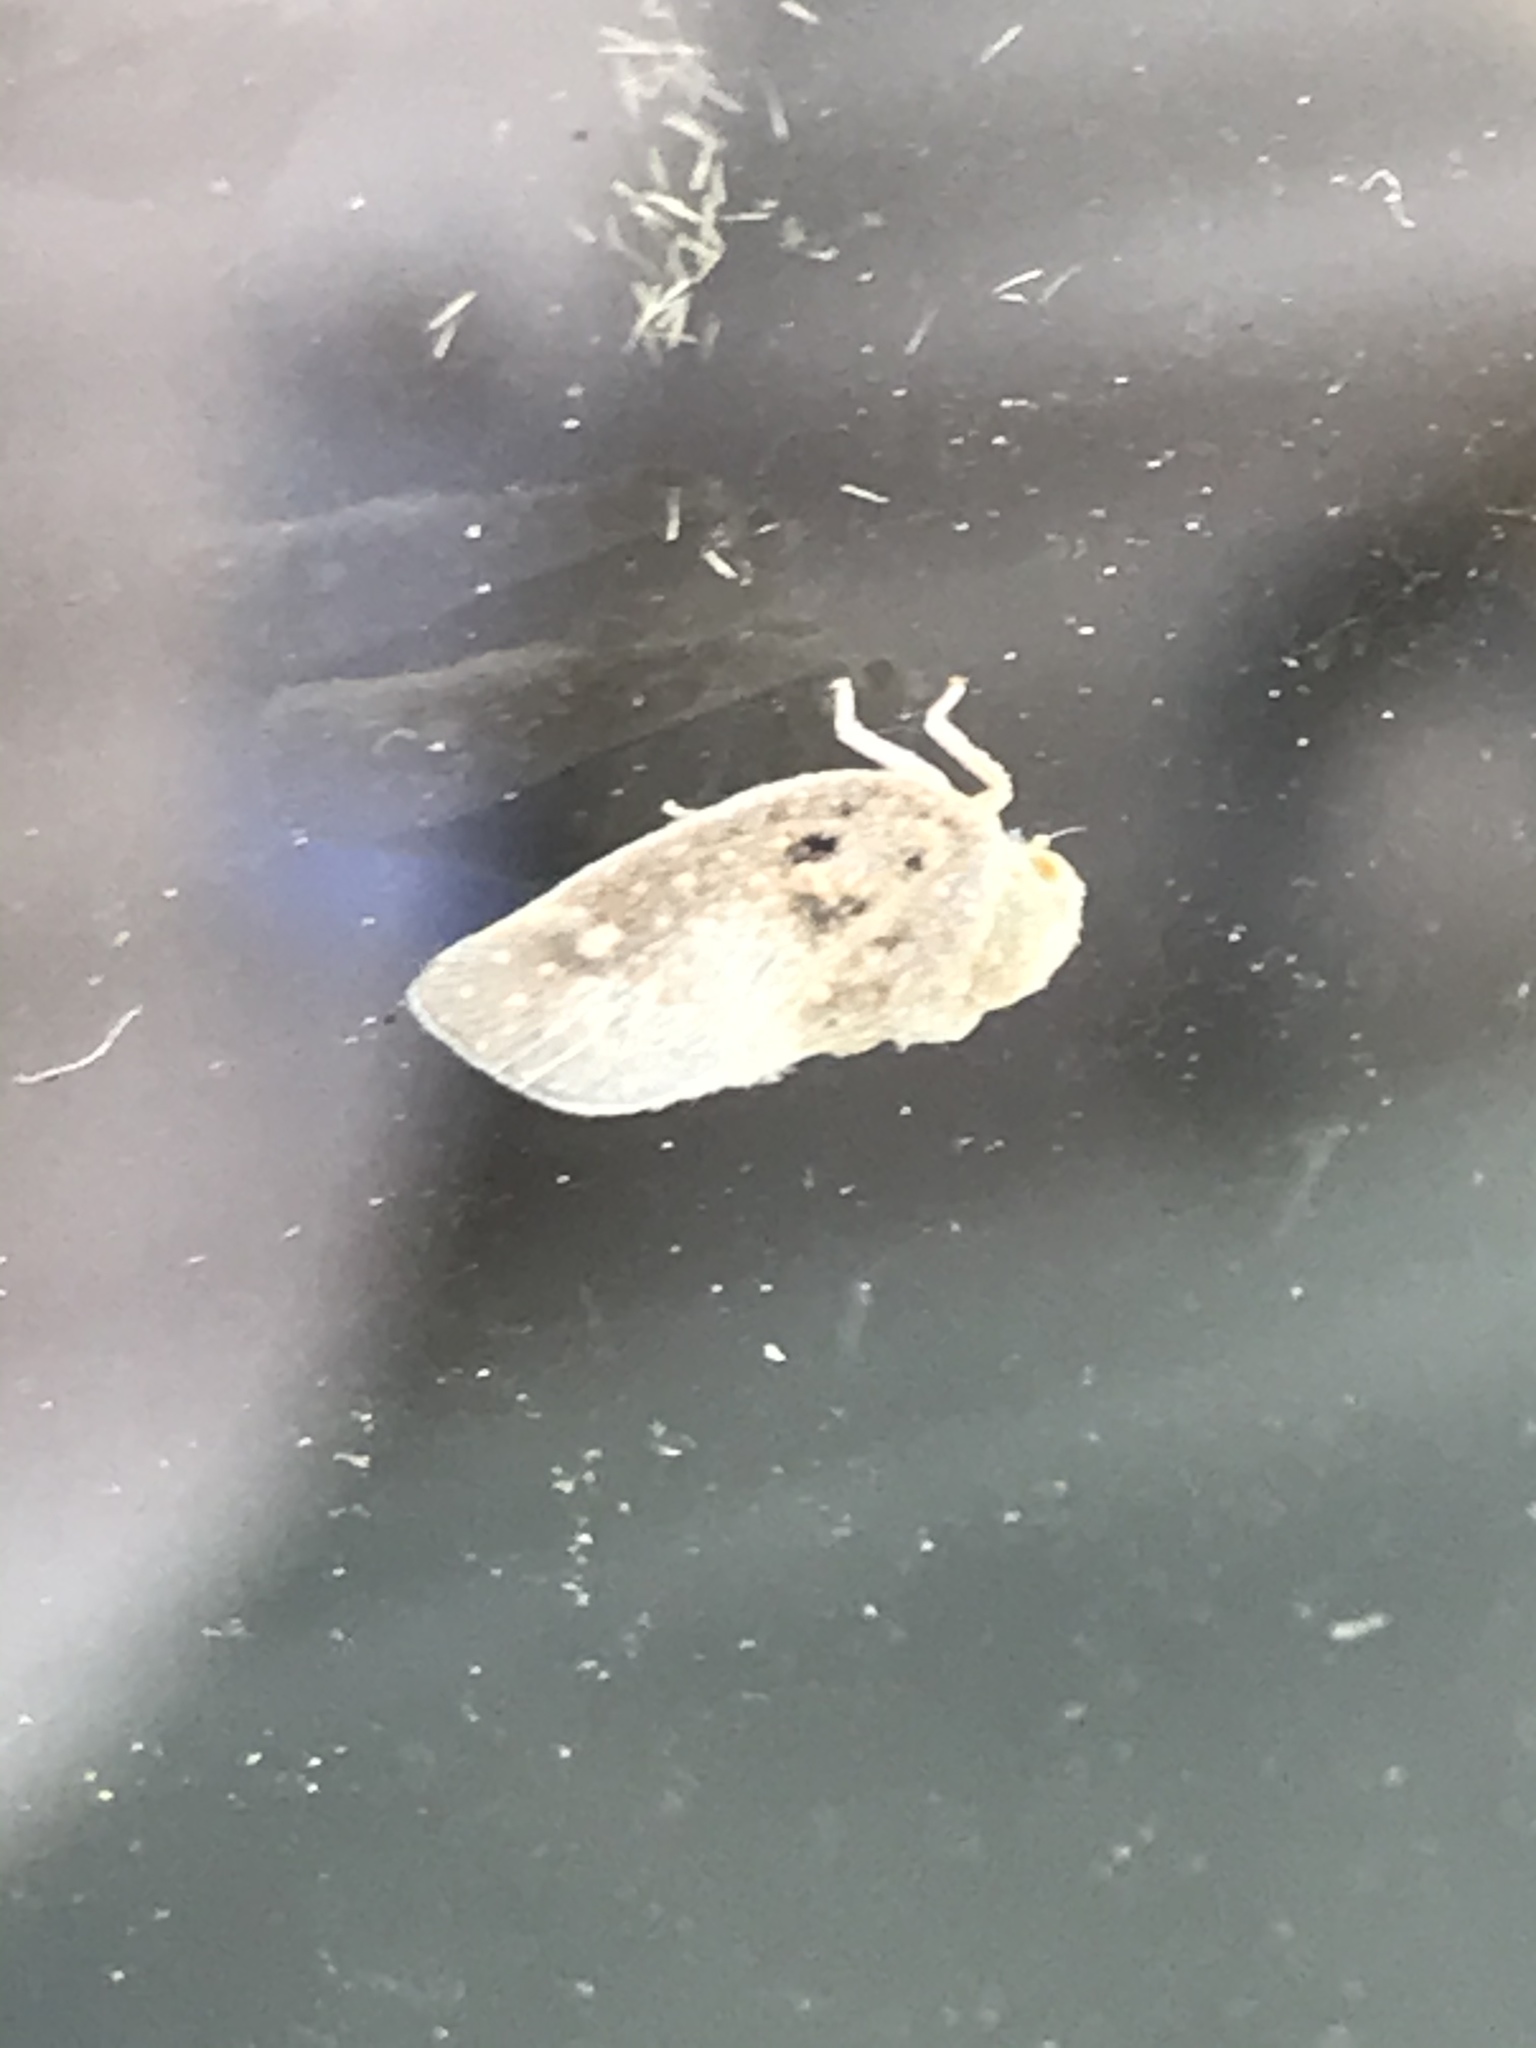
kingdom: Animalia
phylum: Arthropoda
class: Insecta
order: Hemiptera
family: Flatidae
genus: Metcalfa
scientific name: Metcalfa pruinosa
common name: Citrus flatid planthopper
